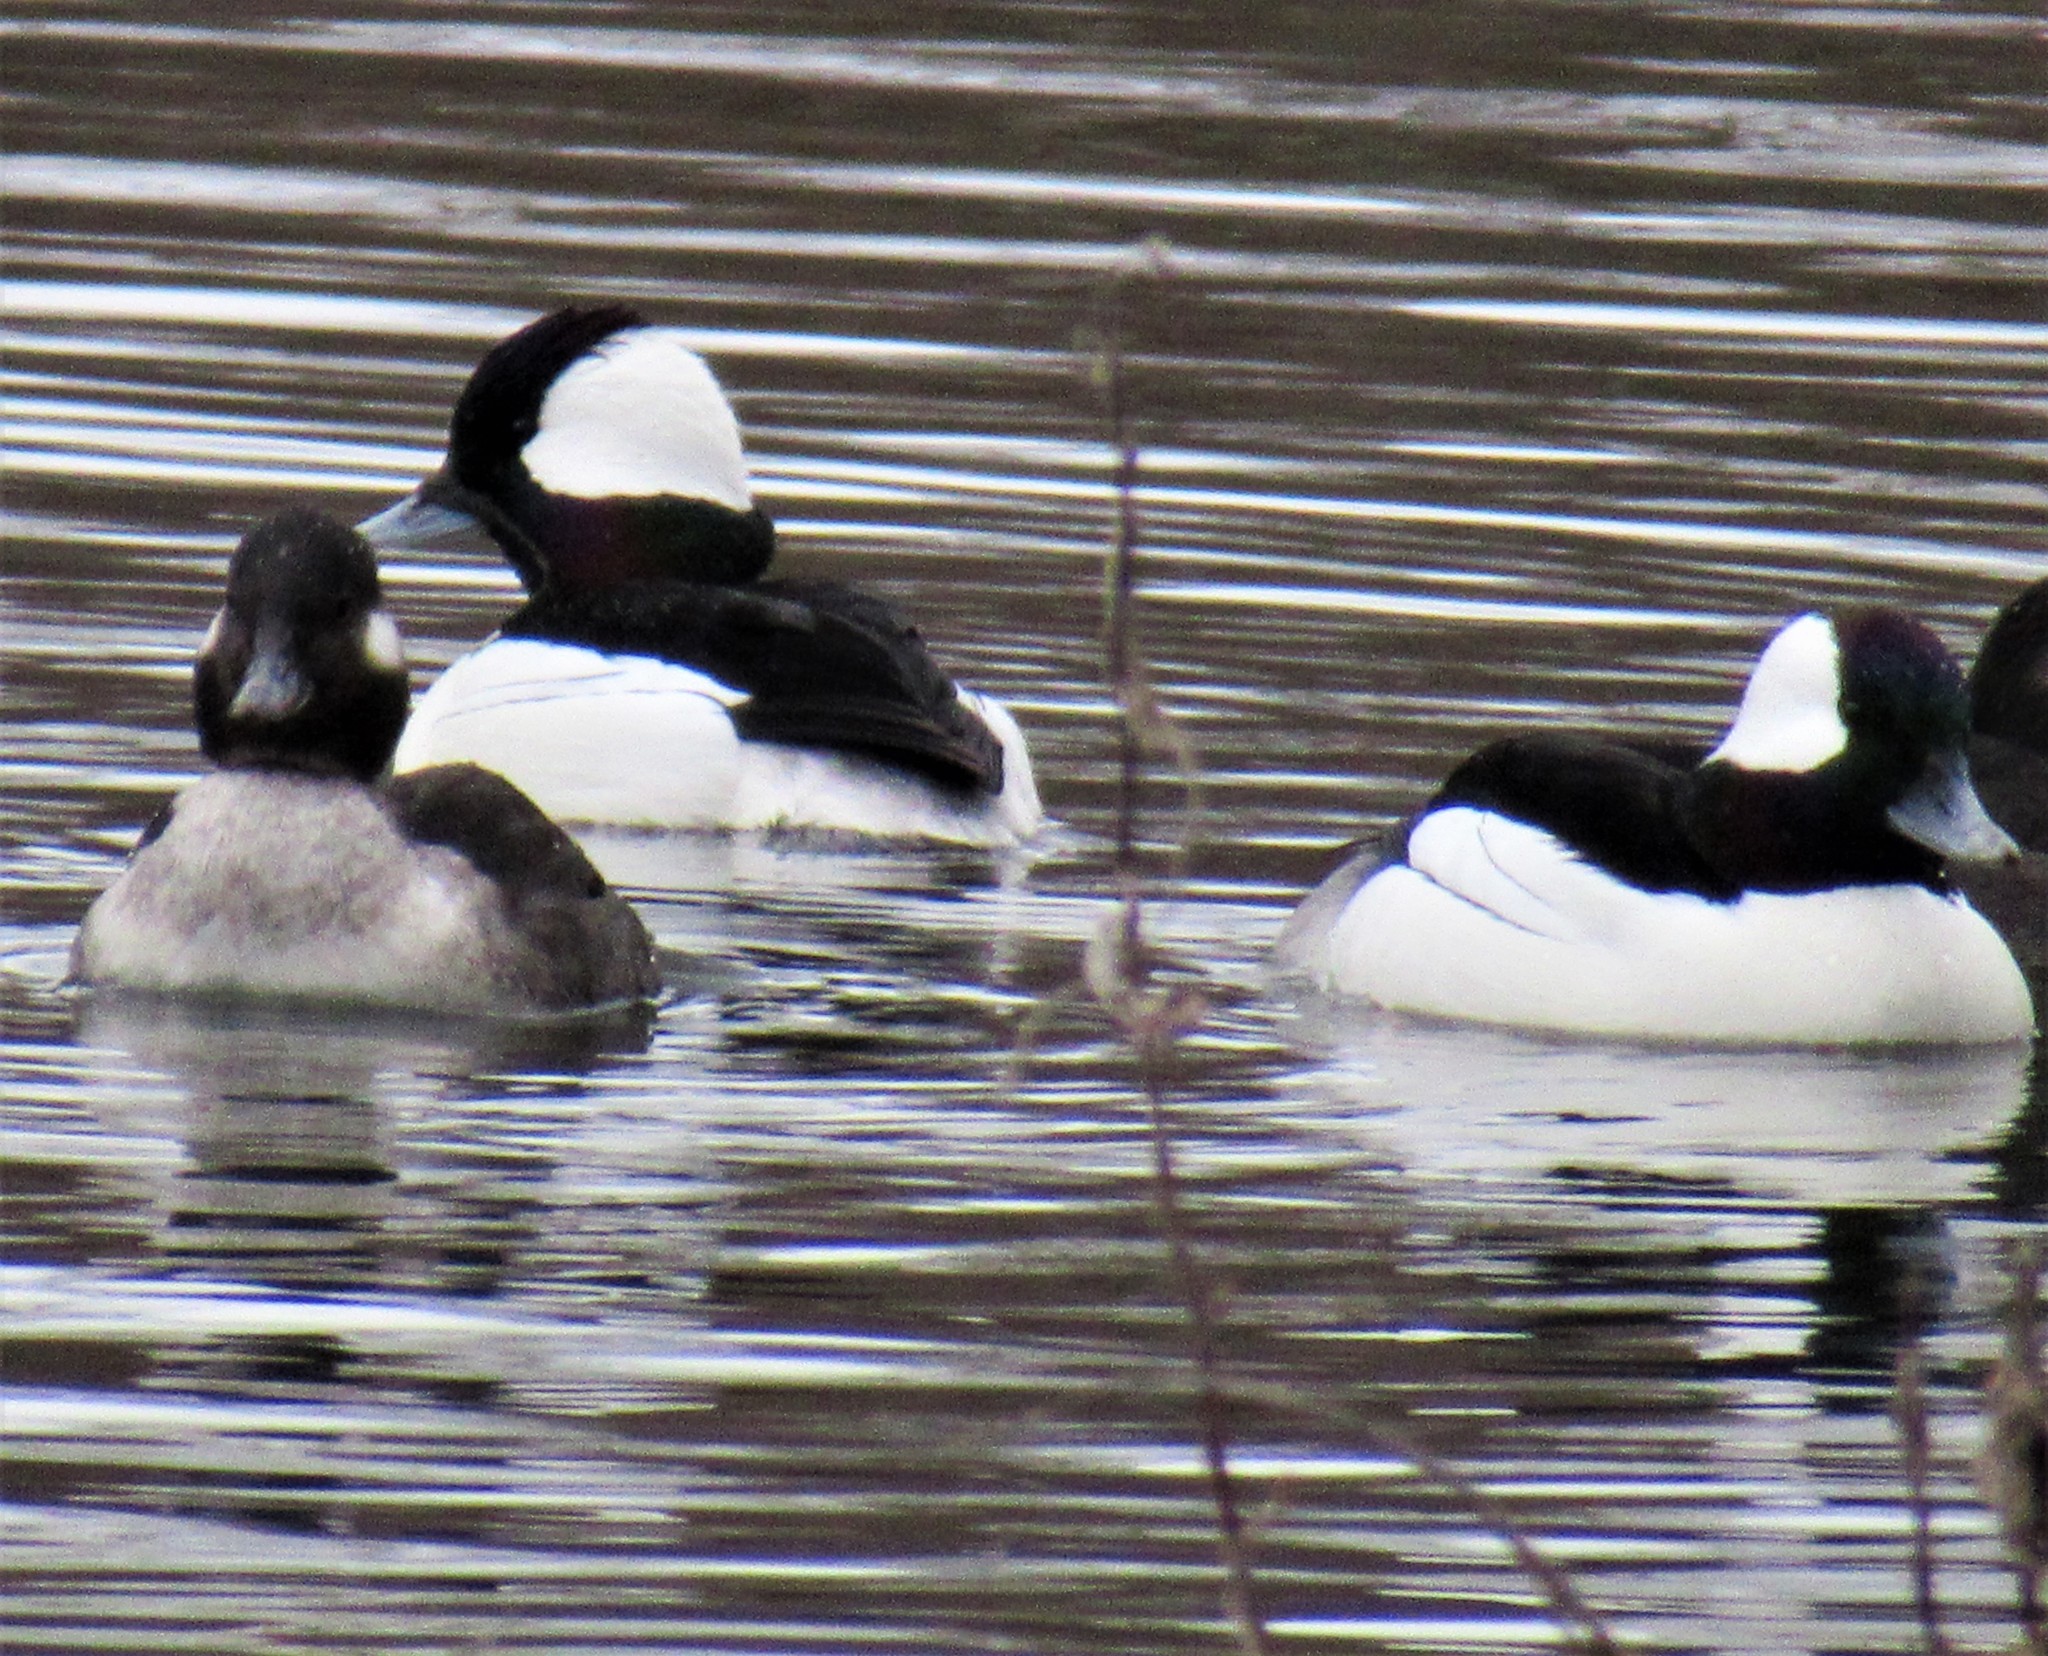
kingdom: Animalia
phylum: Chordata
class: Aves
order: Anseriformes
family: Anatidae
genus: Bucephala
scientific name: Bucephala albeola
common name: Bufflehead
